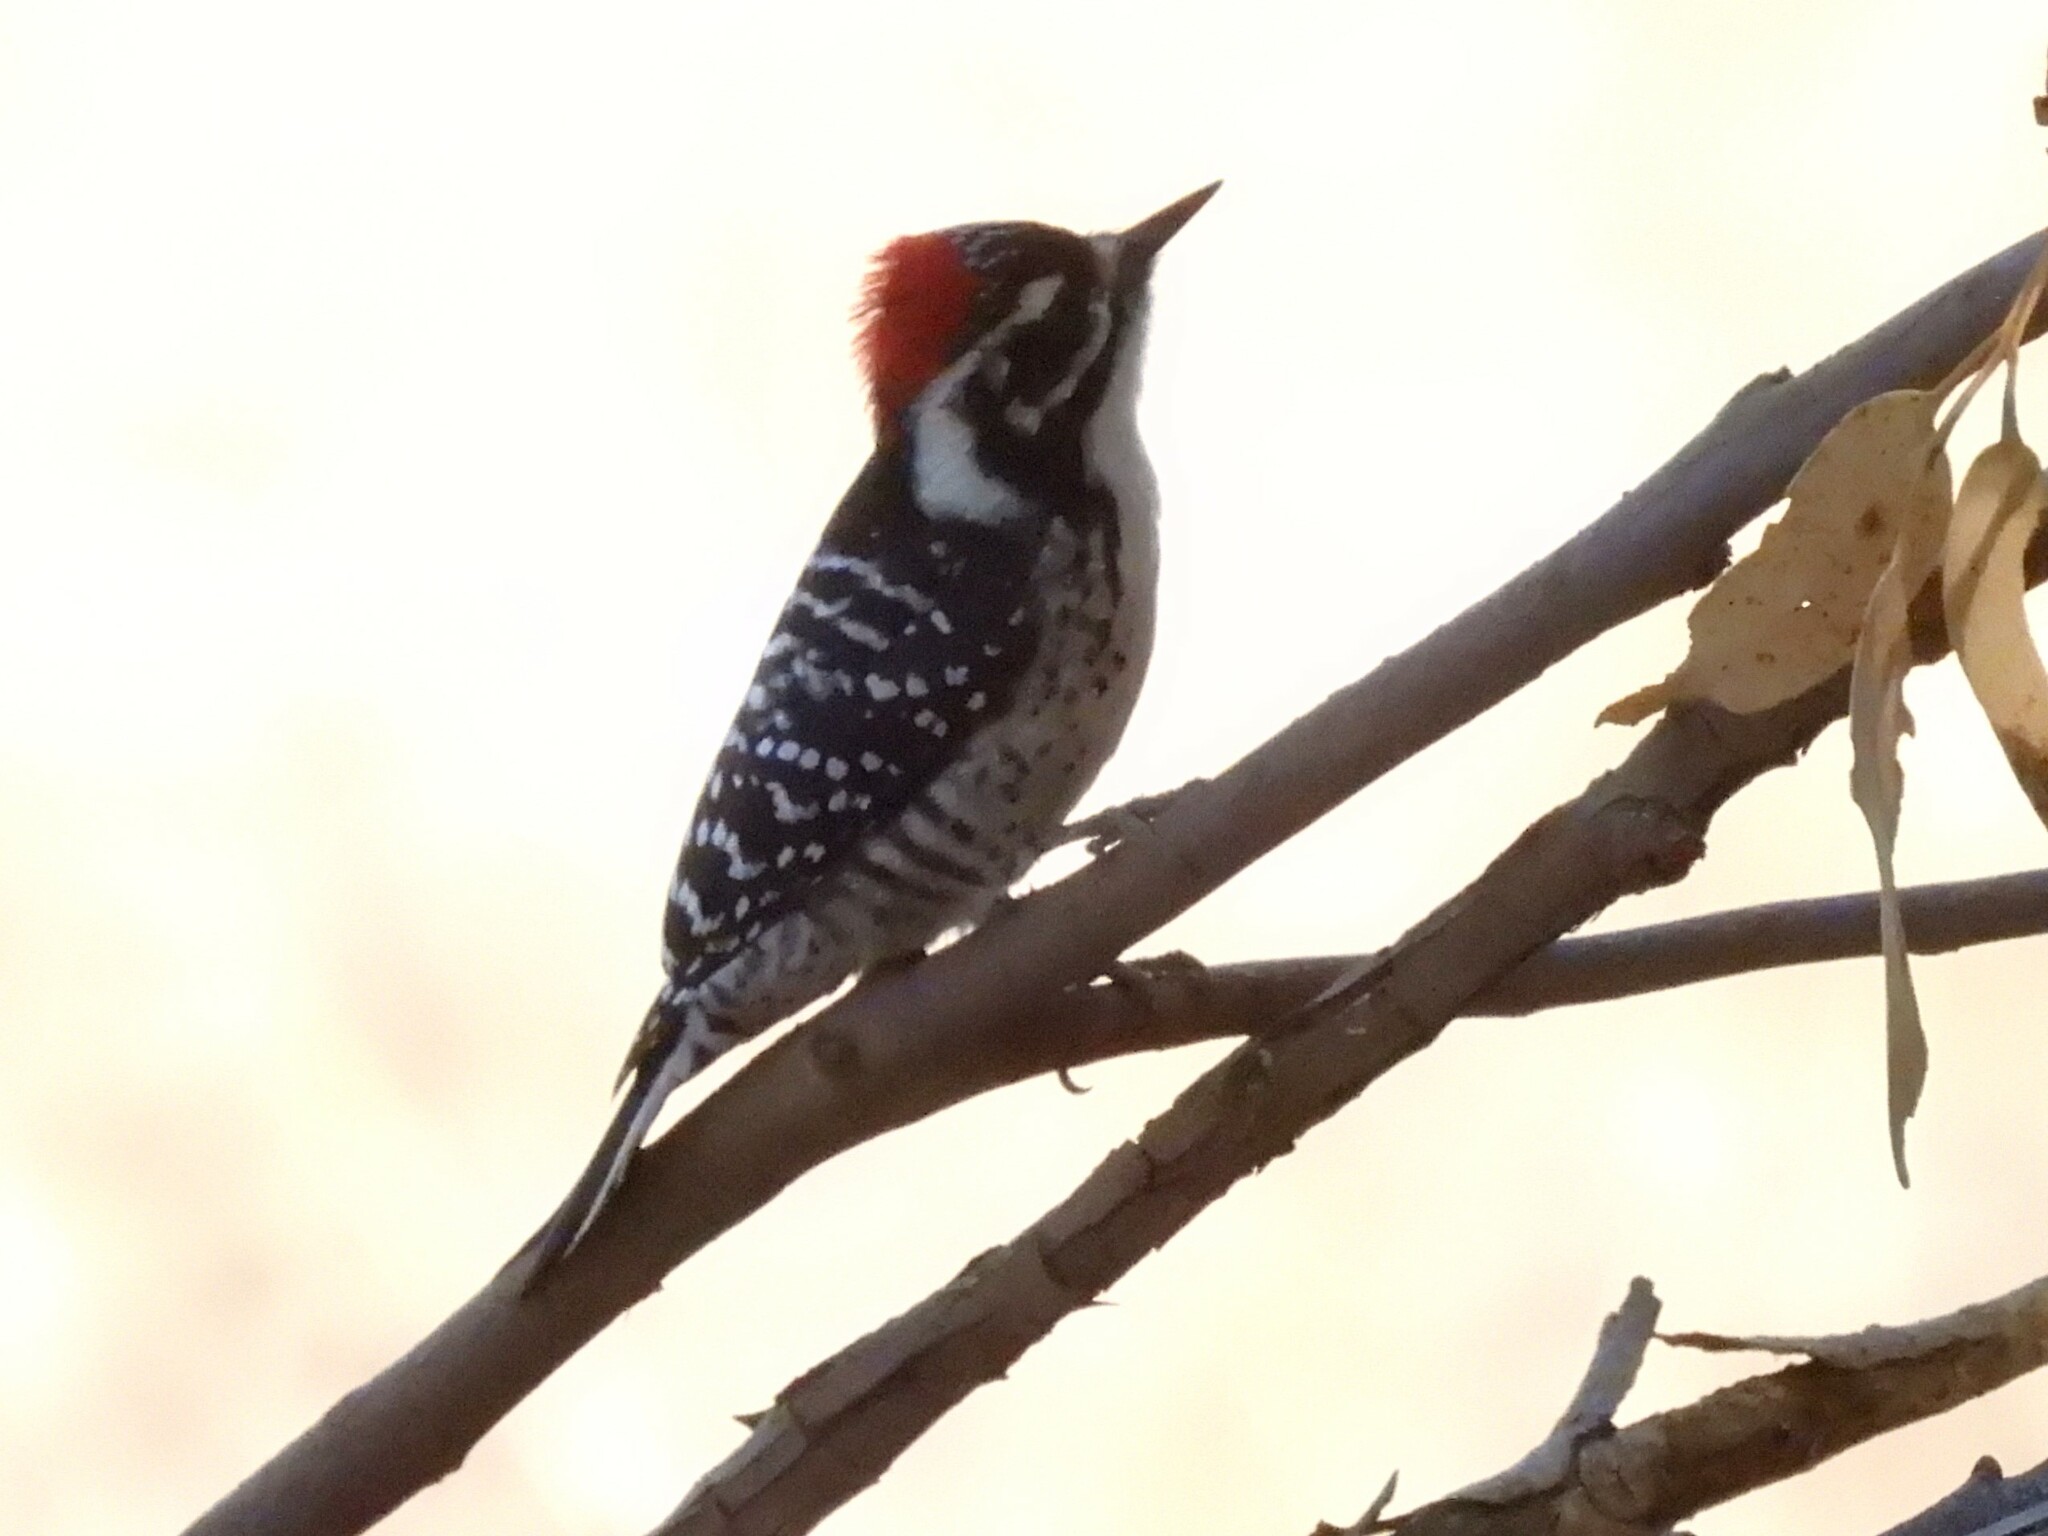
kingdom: Animalia
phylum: Chordata
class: Aves
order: Piciformes
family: Picidae
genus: Dryobates
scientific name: Dryobates nuttallii
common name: Nuttall's woodpecker
